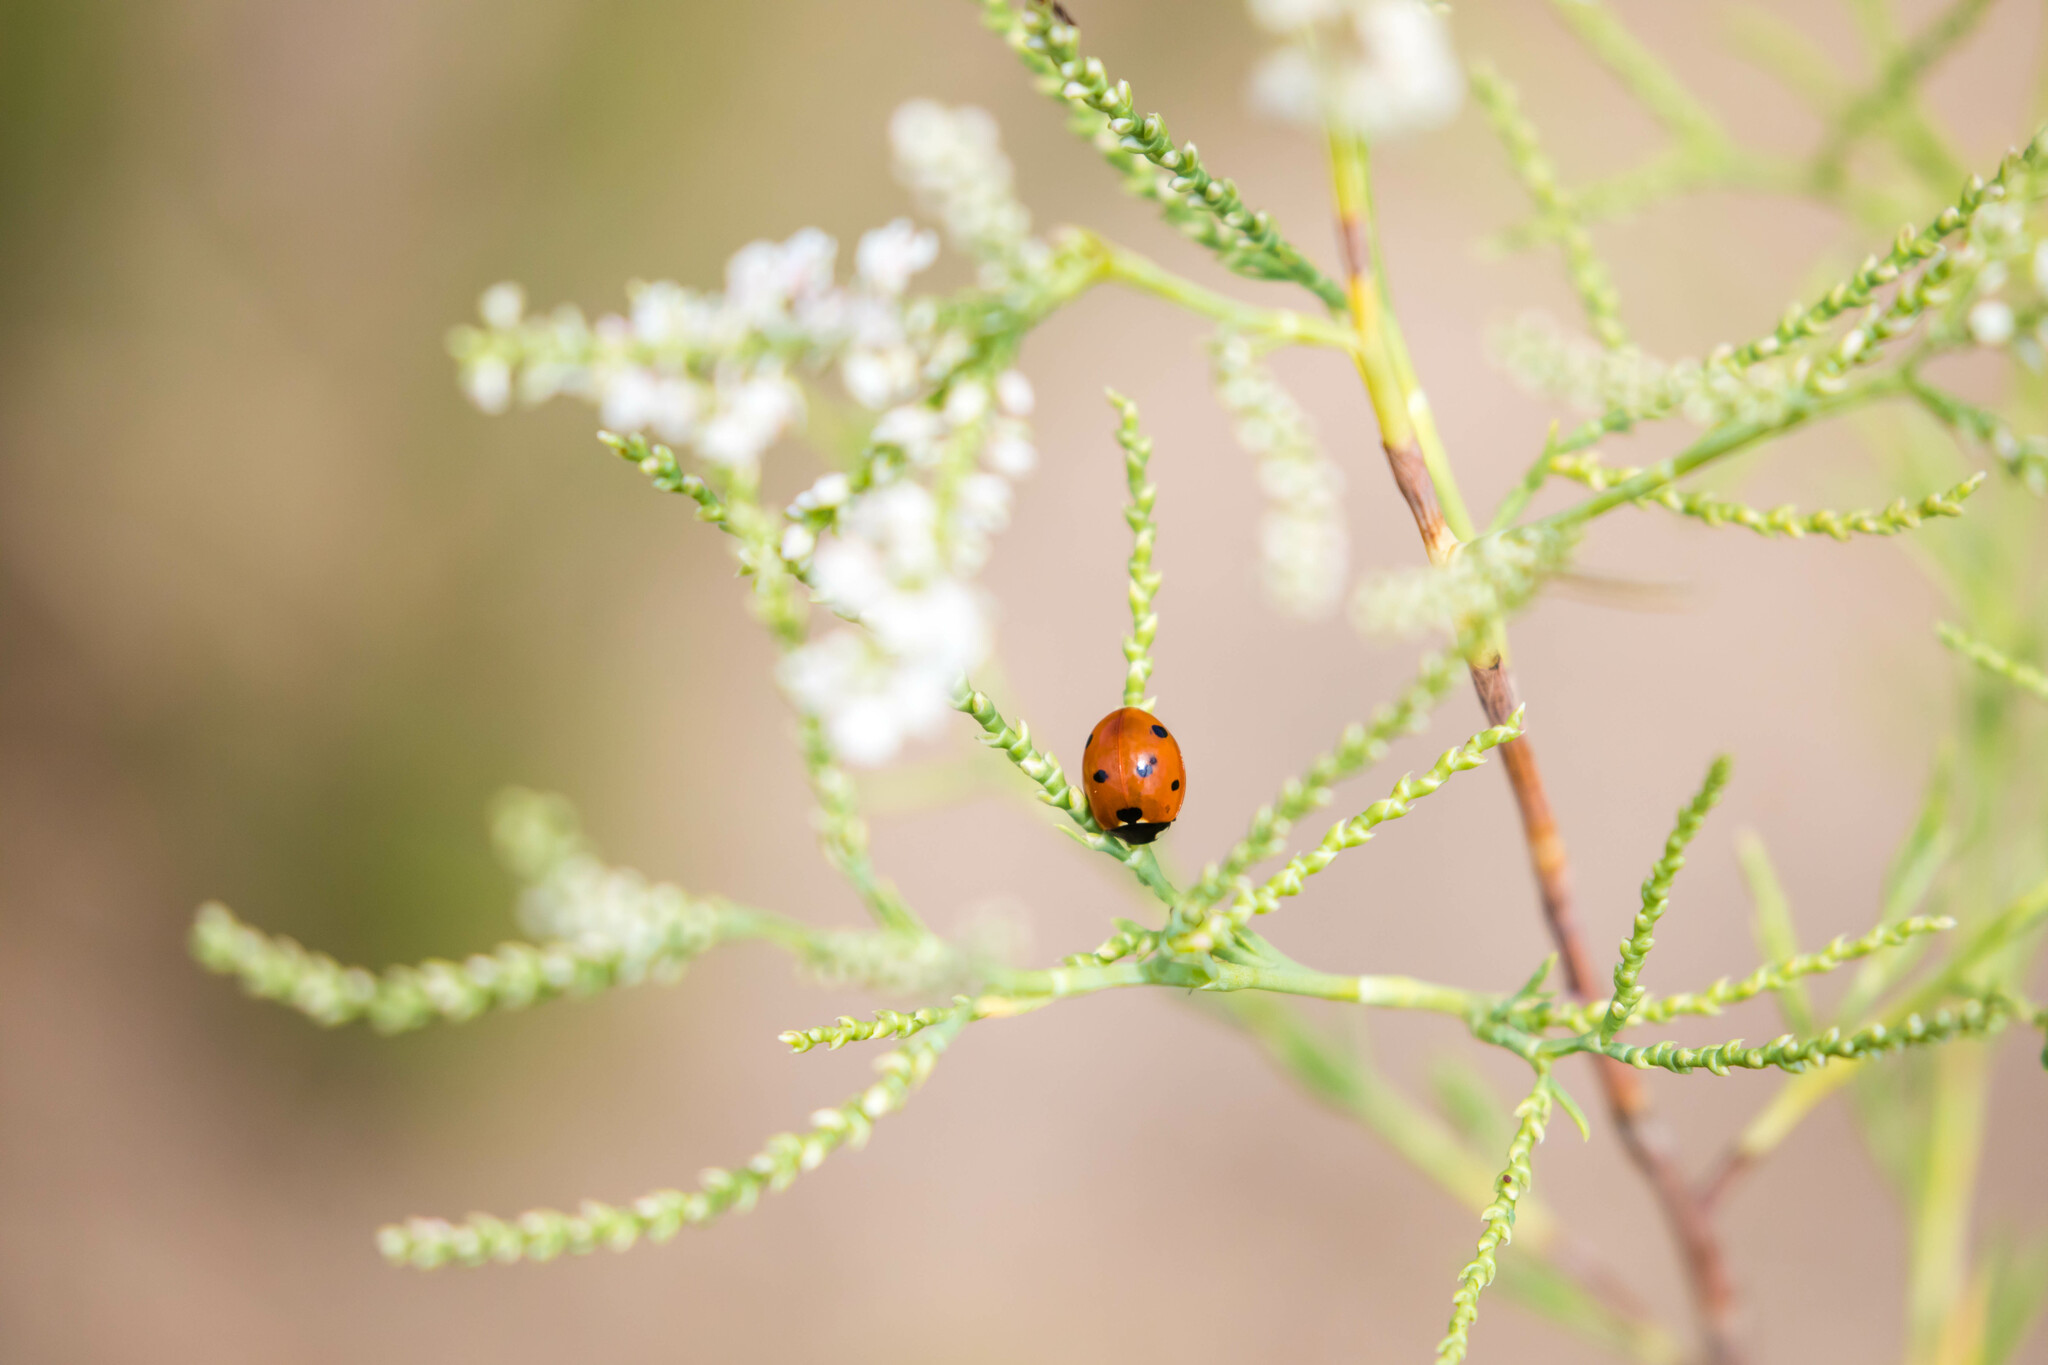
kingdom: Animalia
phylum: Arthropoda
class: Insecta
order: Coleoptera
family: Coccinellidae
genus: Coccinella
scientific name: Coccinella septempunctata
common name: Sevenspotted lady beetle
